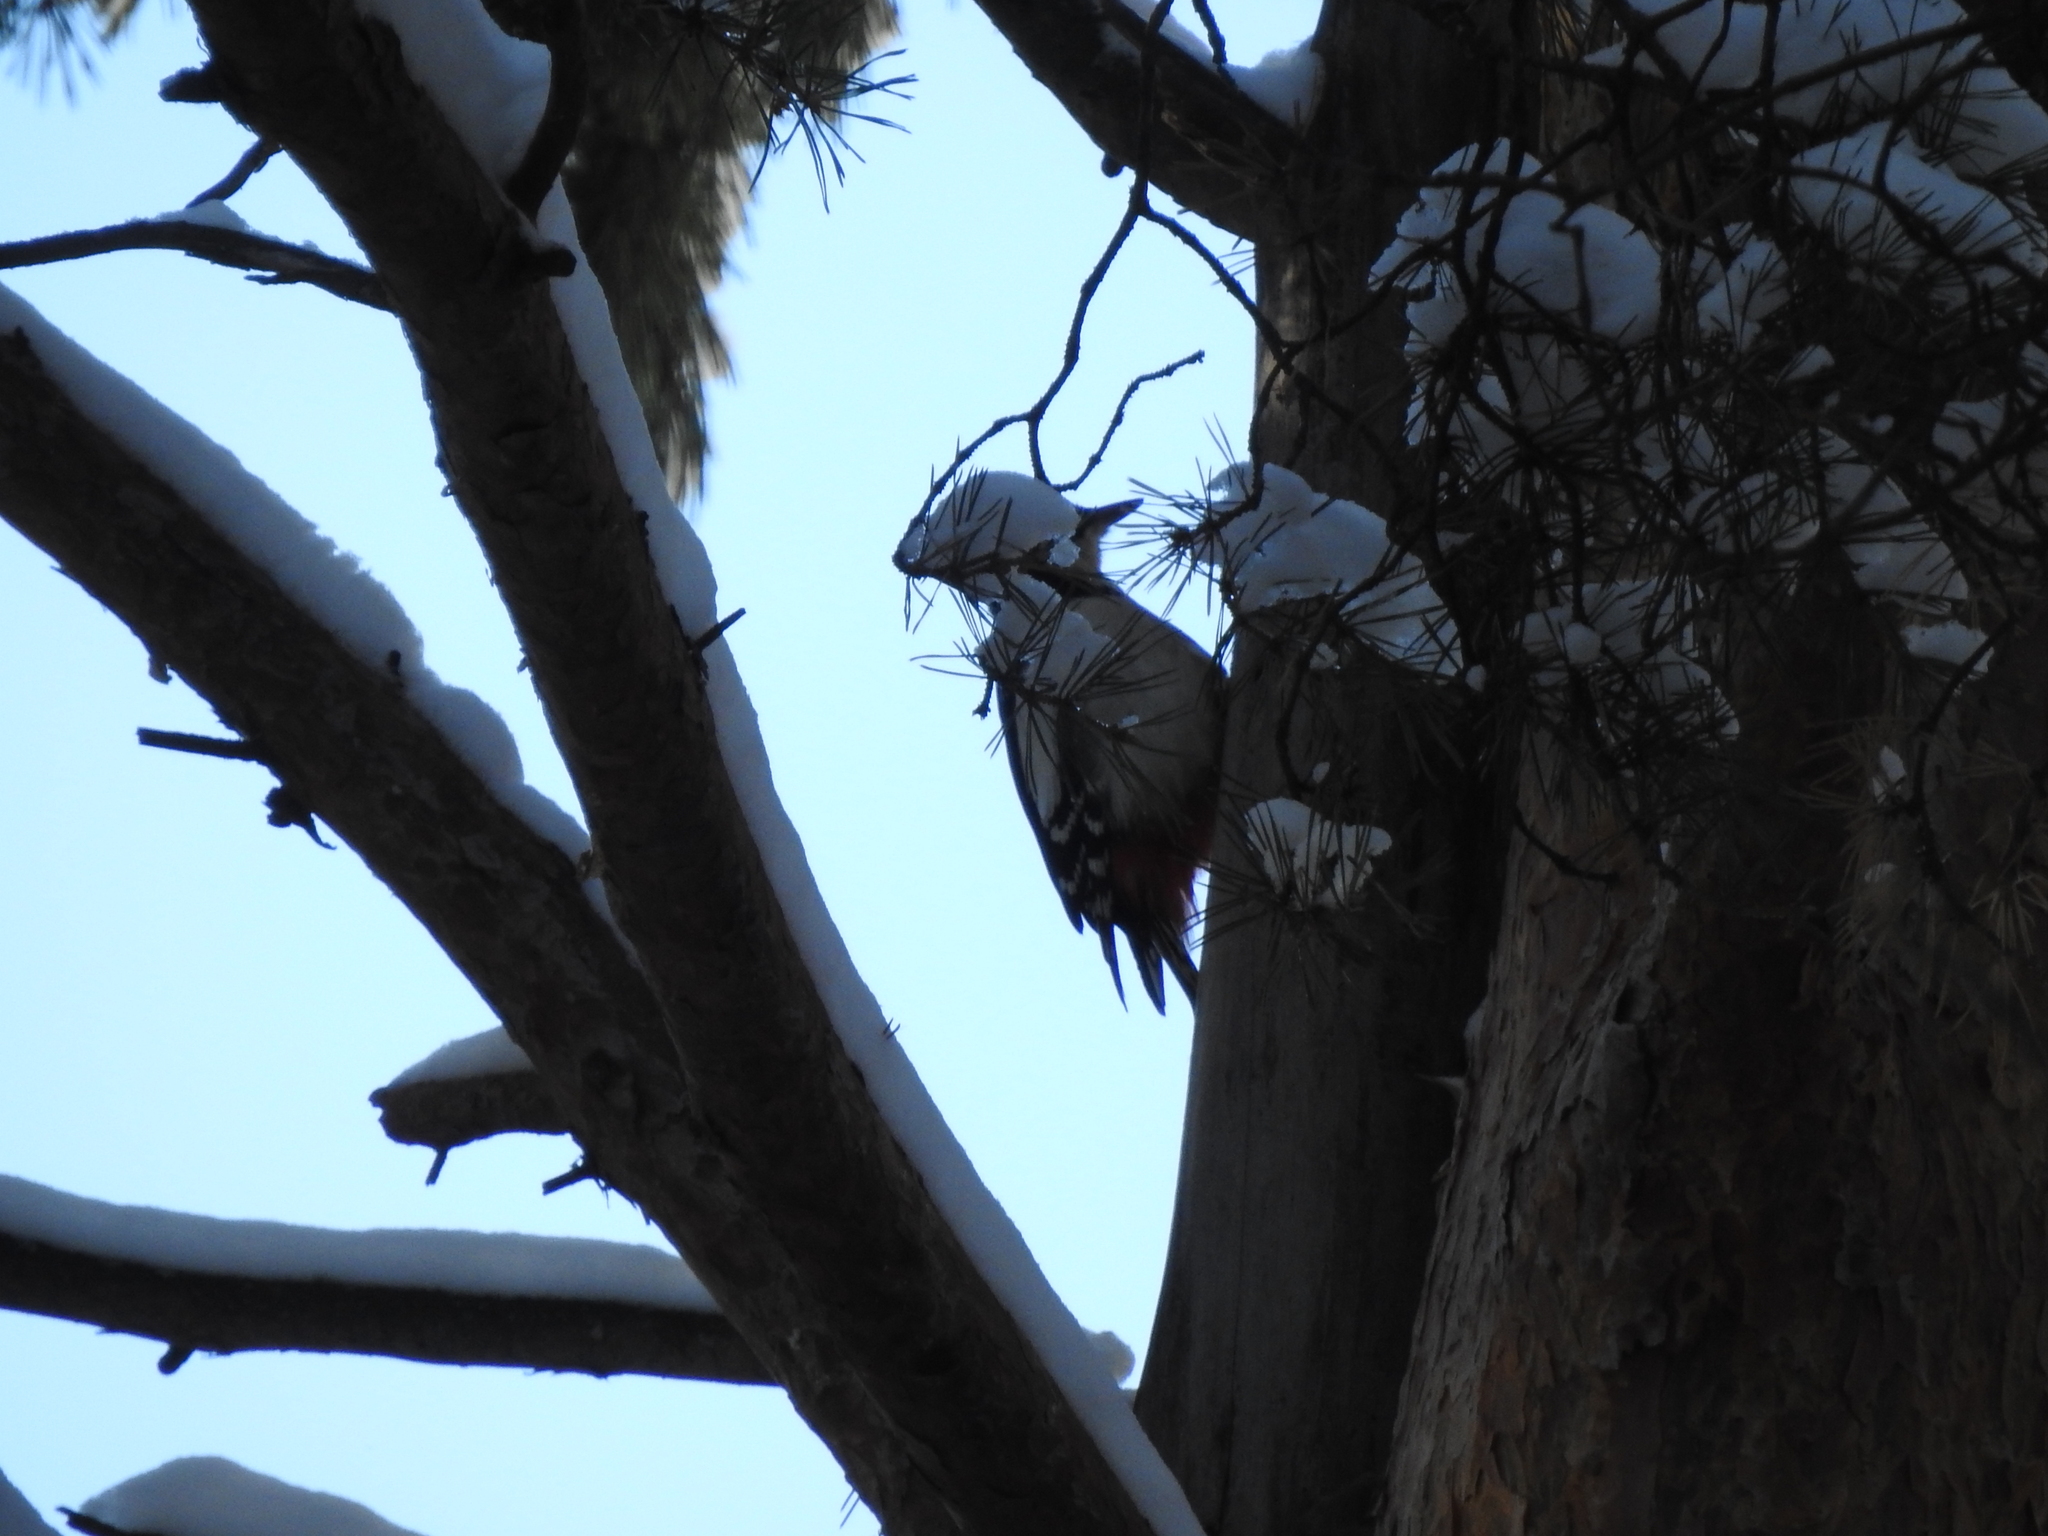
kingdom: Animalia
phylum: Chordata
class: Aves
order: Piciformes
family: Picidae
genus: Dendrocopos
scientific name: Dendrocopos major
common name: Great spotted woodpecker
